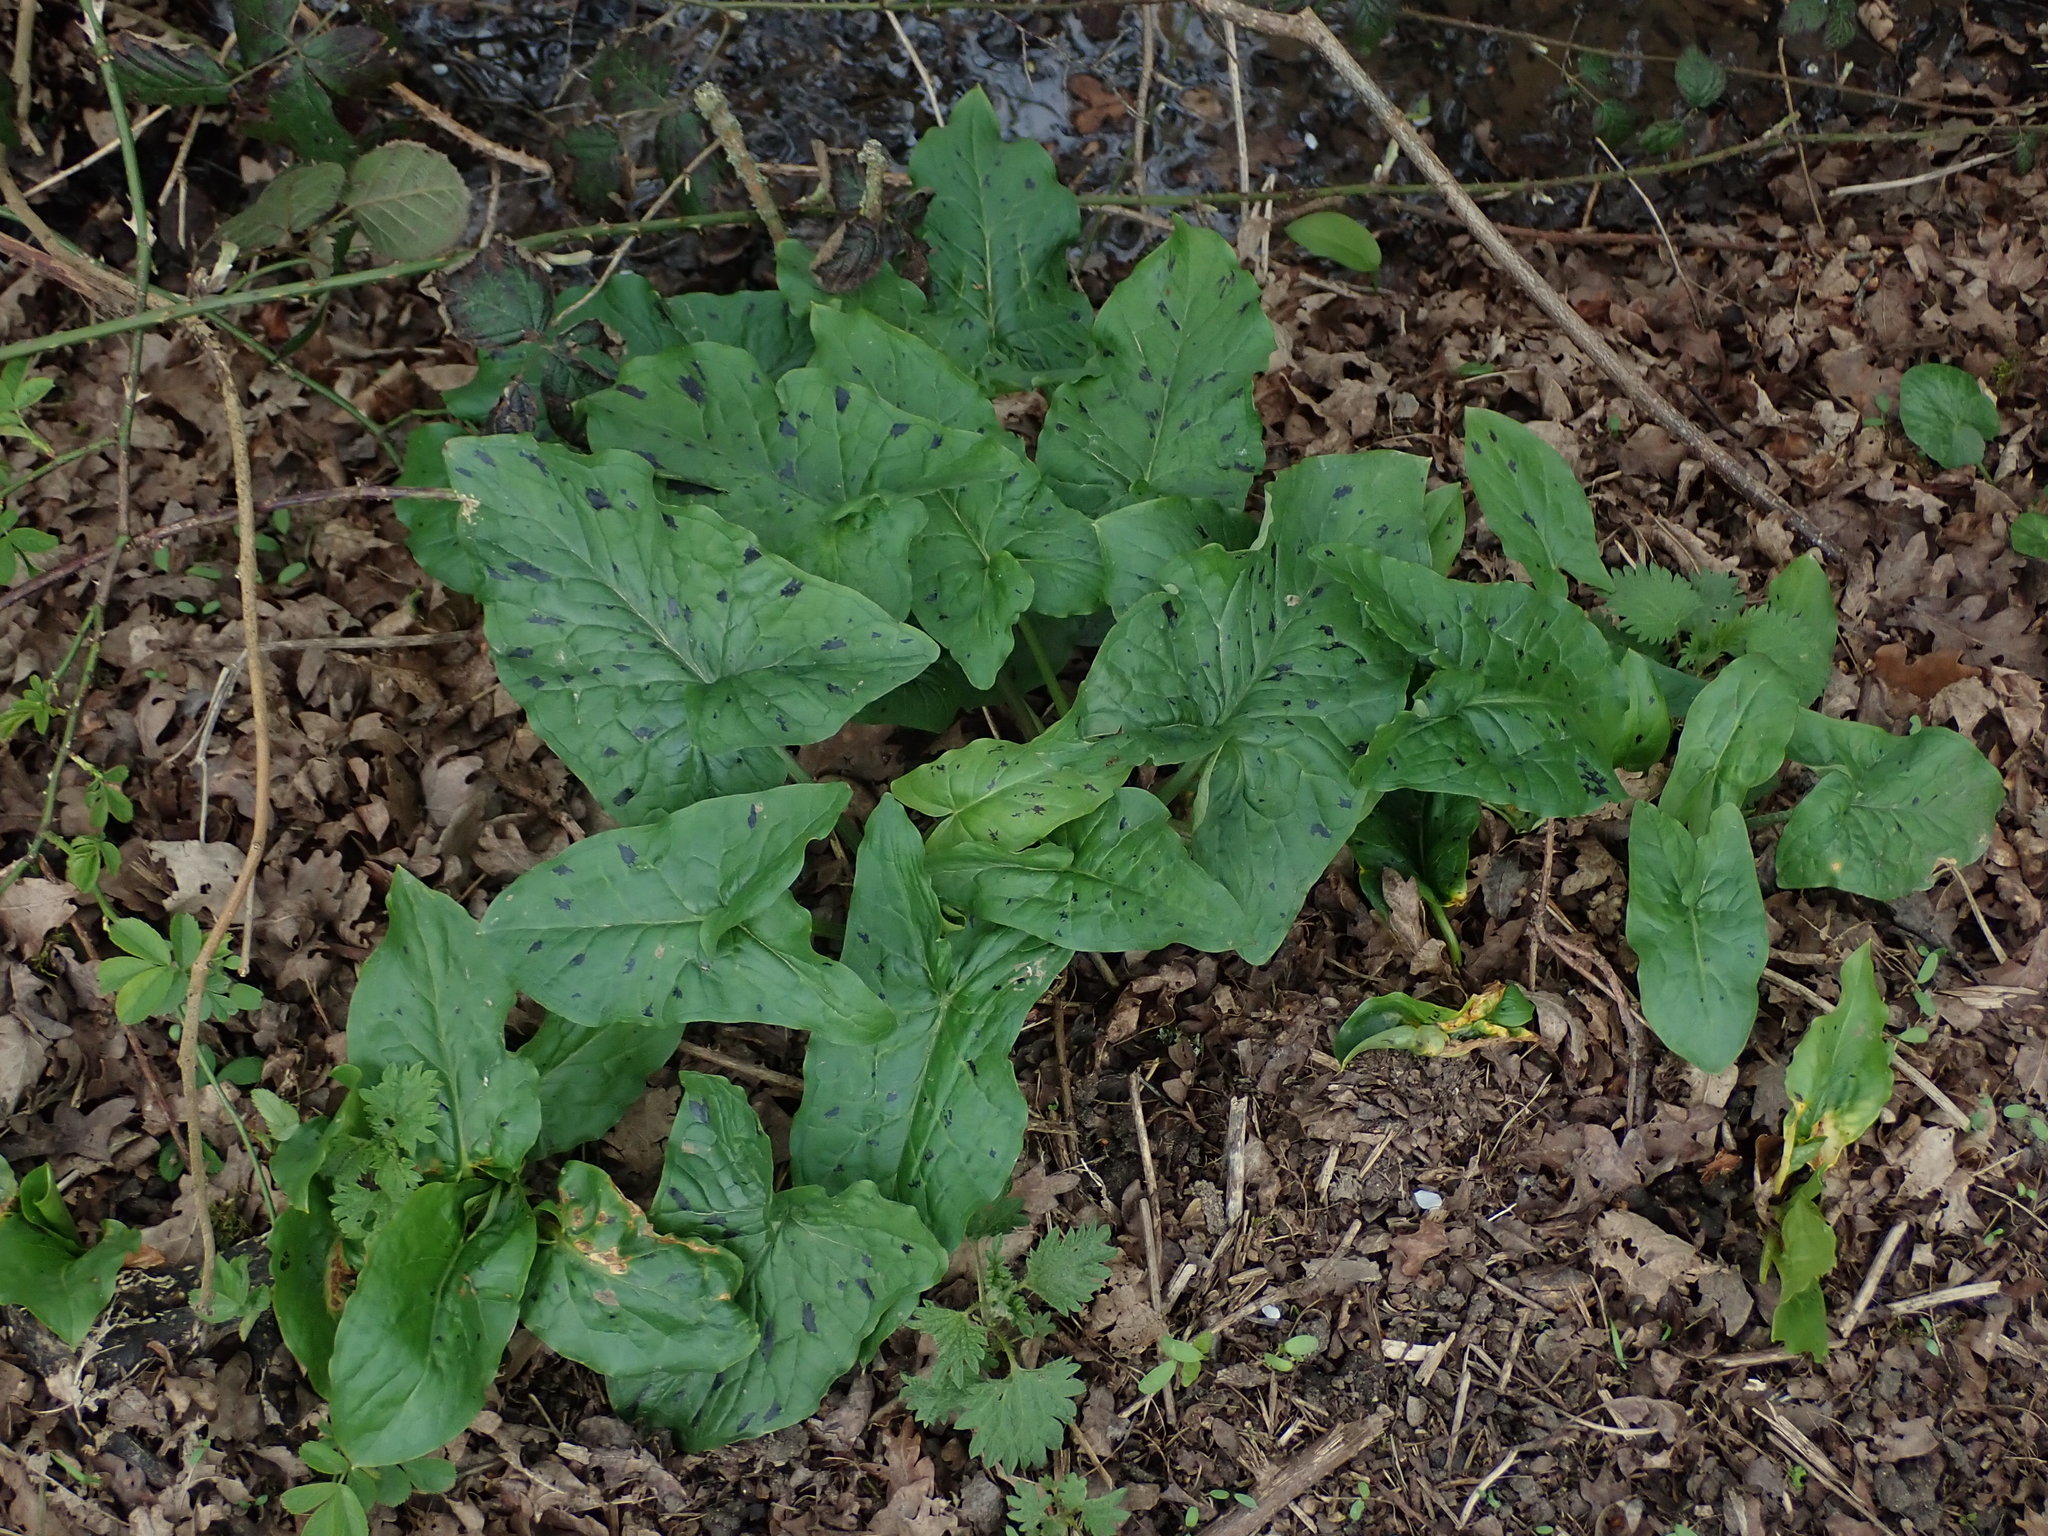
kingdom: Plantae
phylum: Tracheophyta
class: Liliopsida
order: Alismatales
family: Araceae
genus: Arum
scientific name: Arum maculatum
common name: Lords-and-ladies
